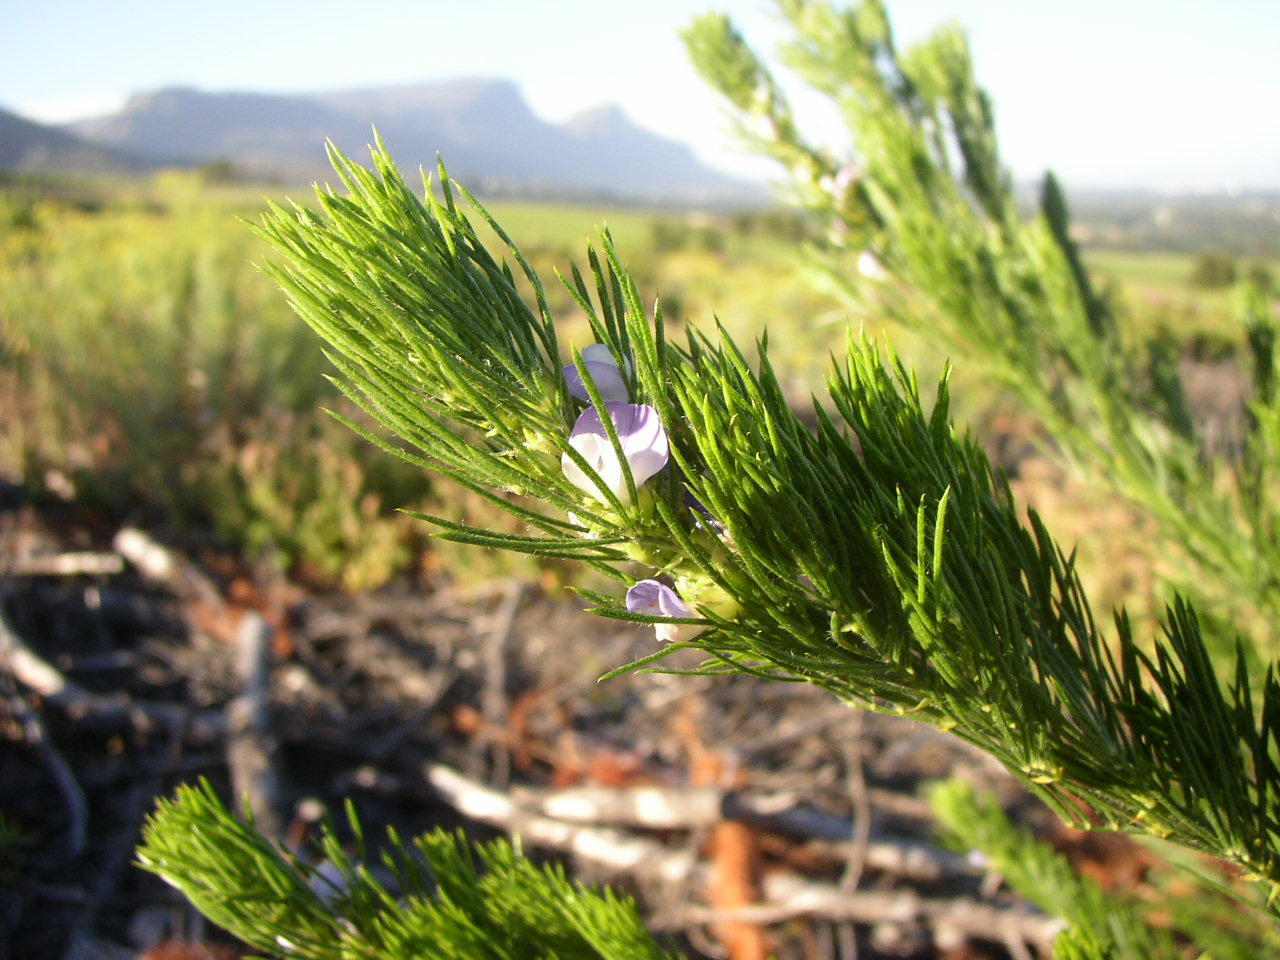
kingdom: Plantae
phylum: Tracheophyta
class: Magnoliopsida
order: Fabales
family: Fabaceae
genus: Psoralea
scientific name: Psoralea pinnata
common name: African scurfpea
